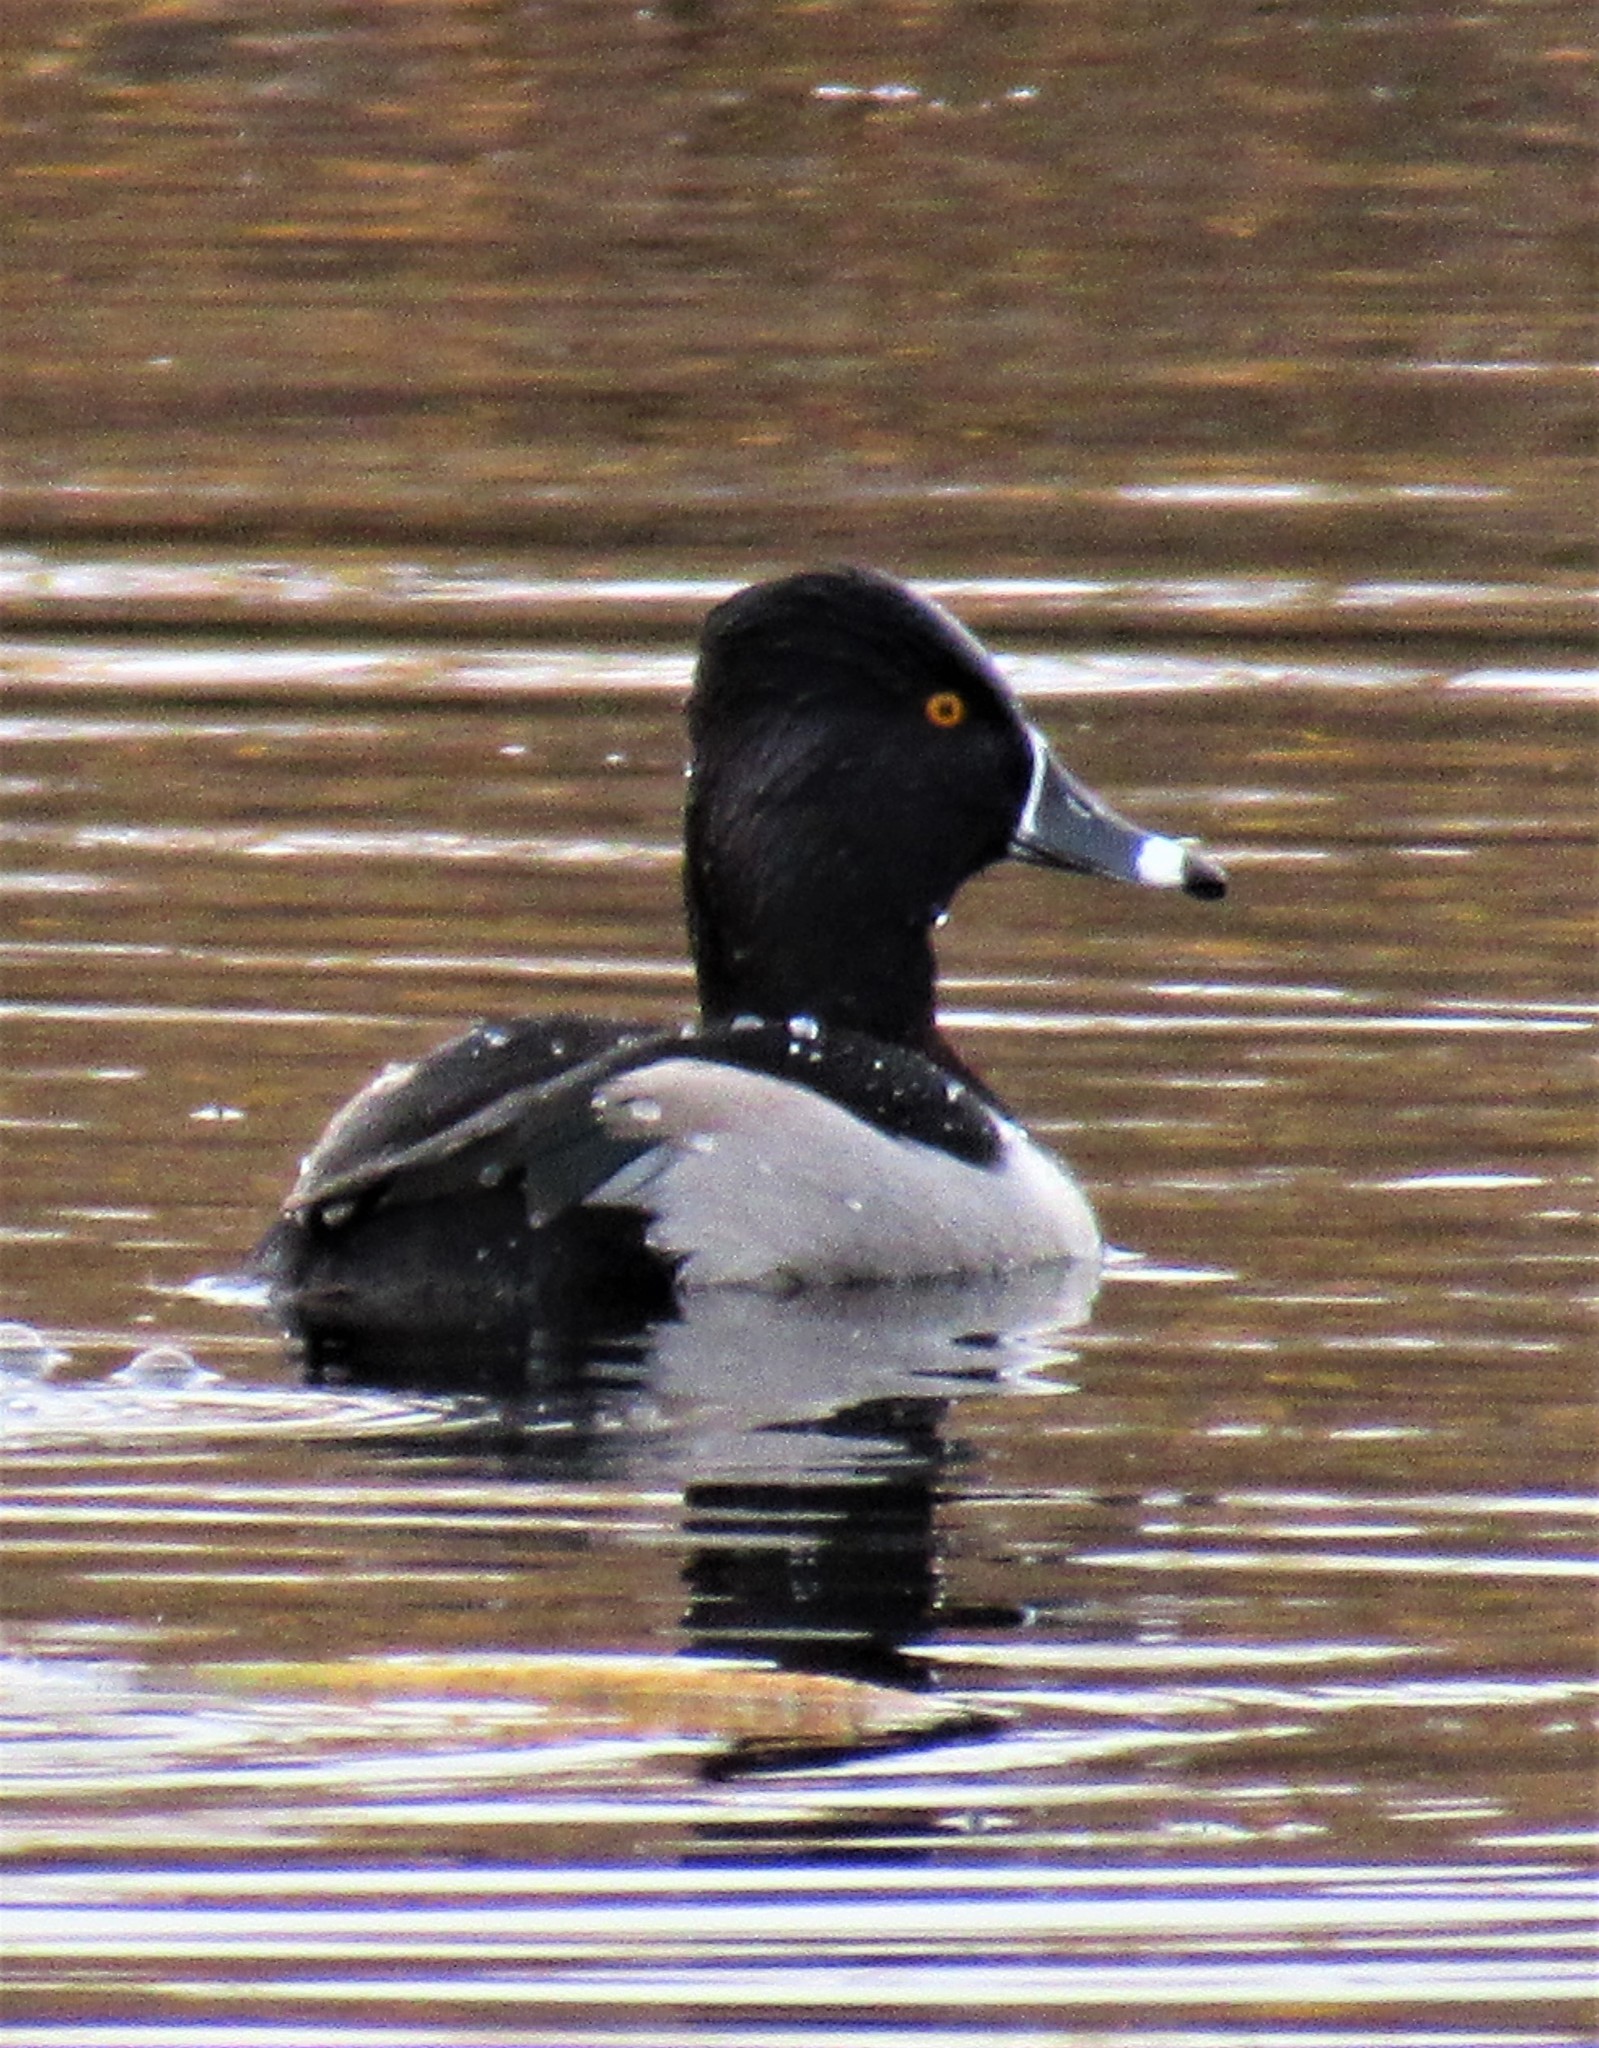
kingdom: Animalia
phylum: Chordata
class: Aves
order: Anseriformes
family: Anatidae
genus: Aythya
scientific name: Aythya collaris
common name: Ring-necked duck
